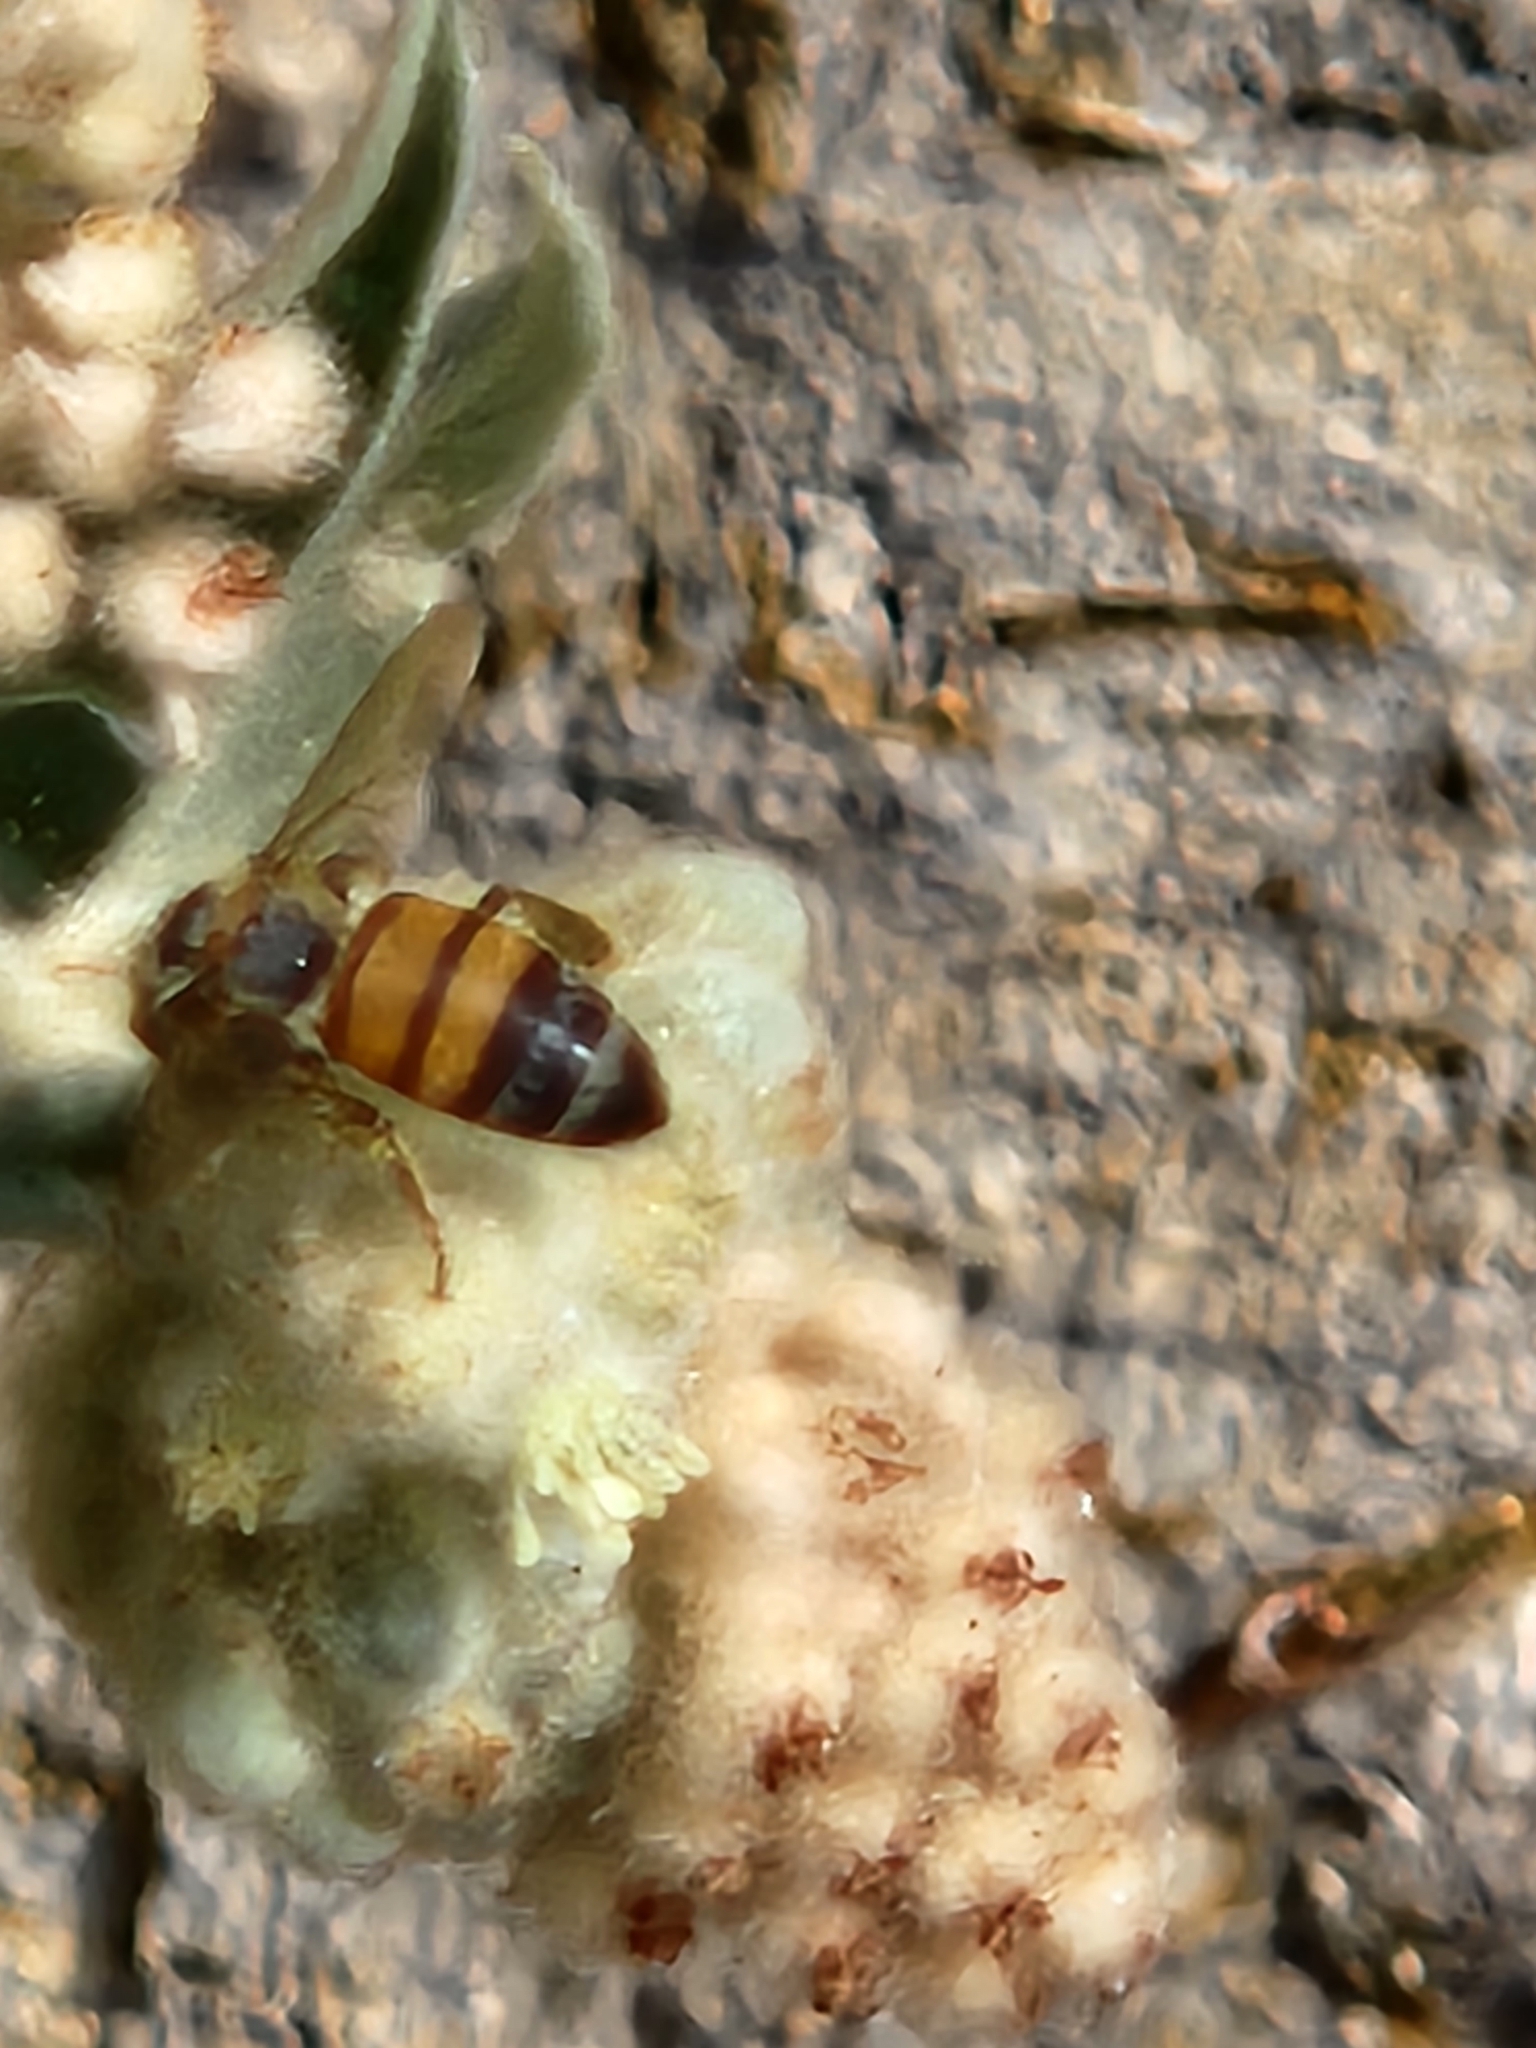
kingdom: Animalia
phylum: Arthropoda
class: Insecta
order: Hymenoptera
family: Apidae
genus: Apis
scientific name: Apis mellifera
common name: Honey bee
